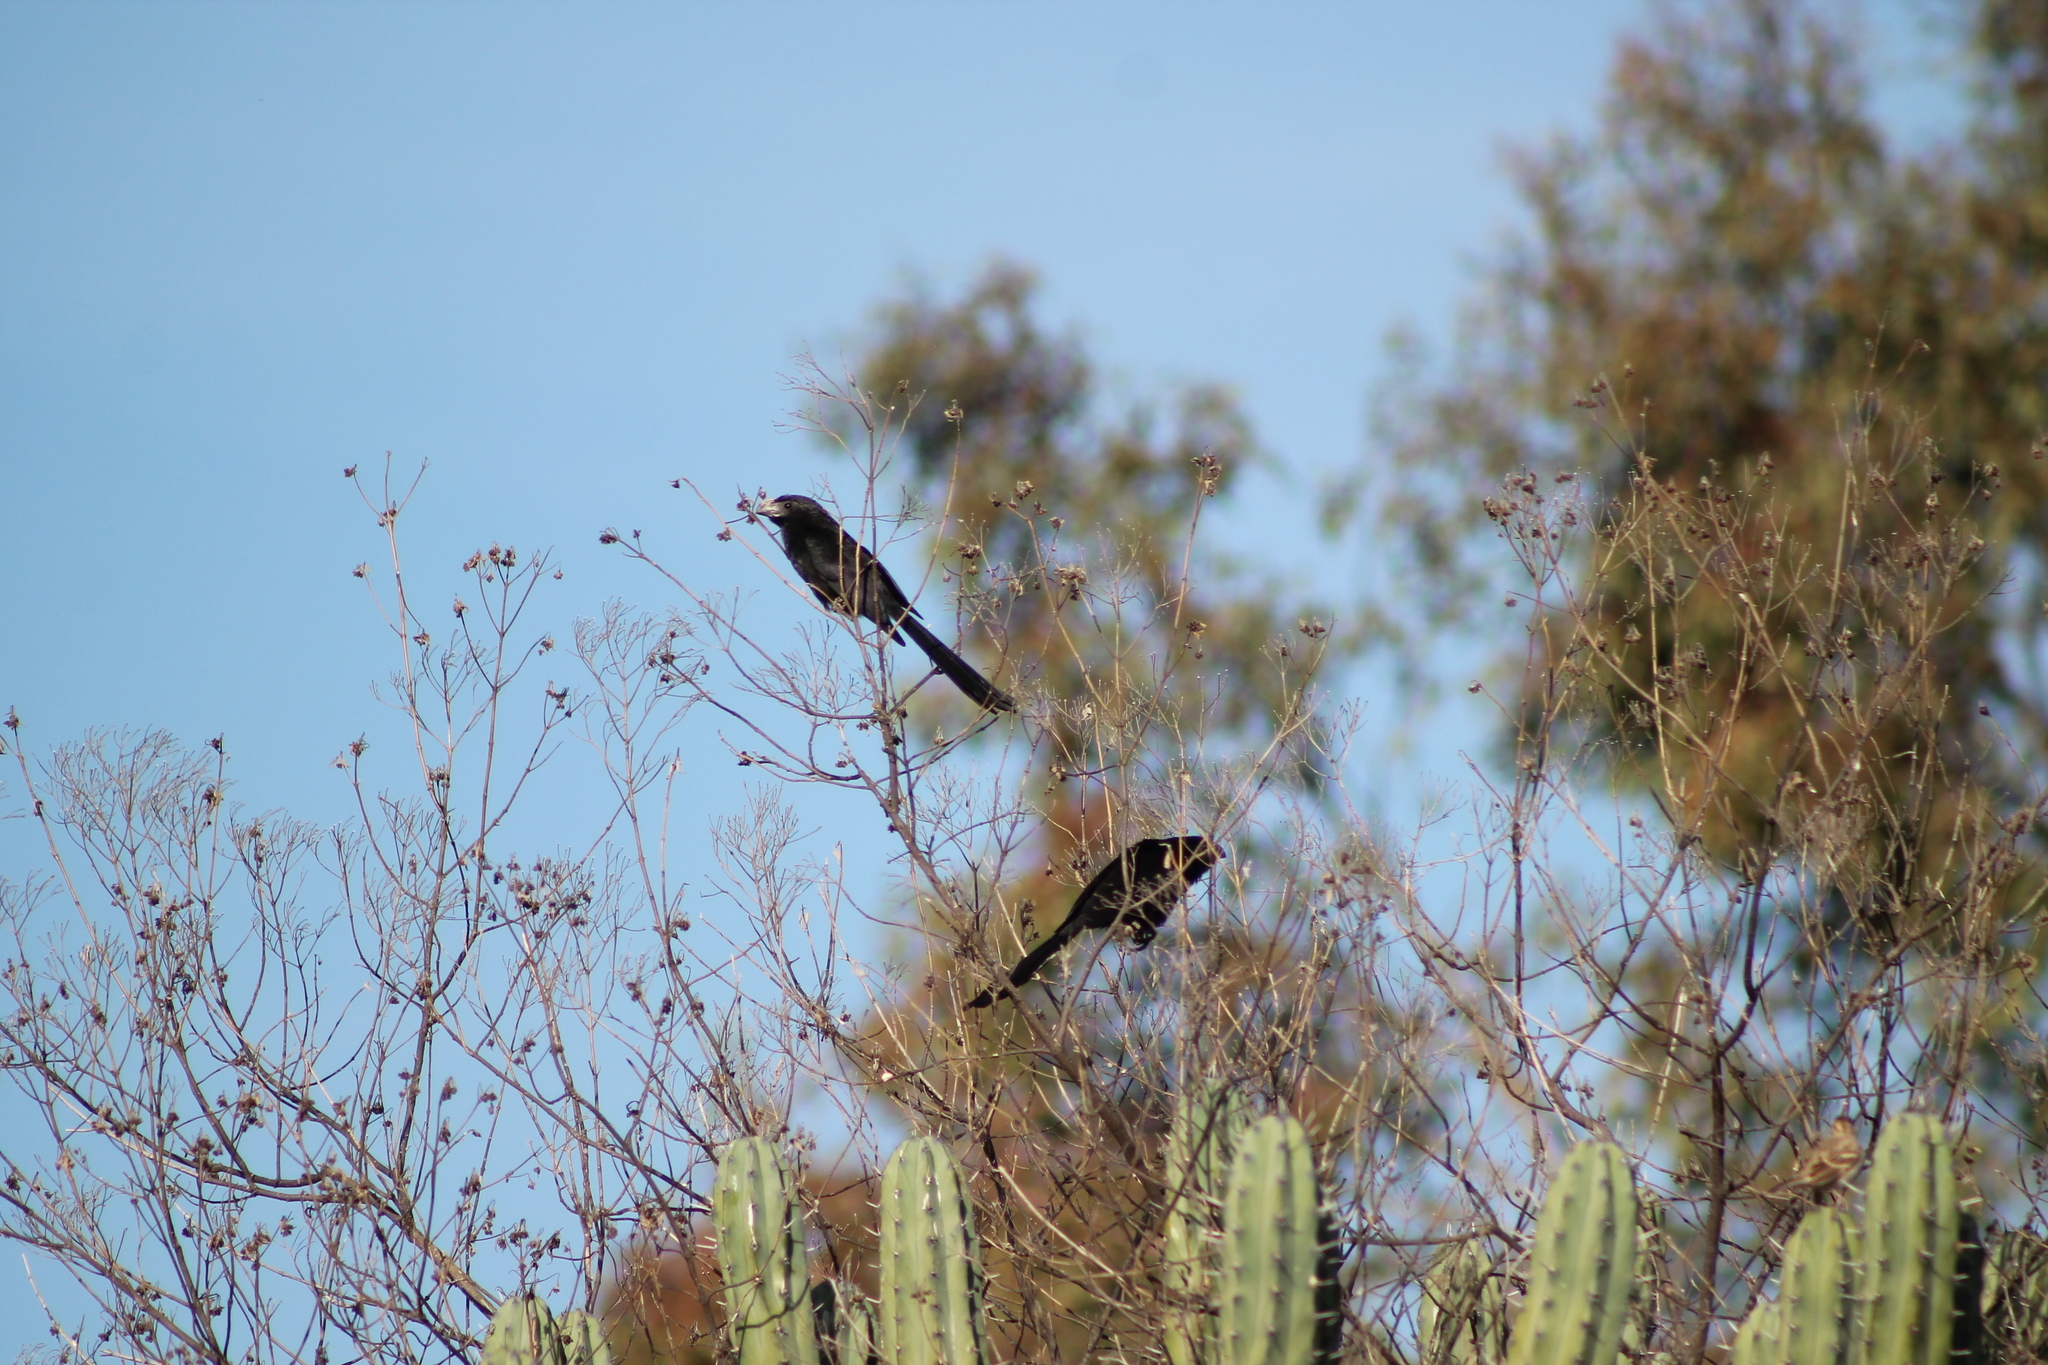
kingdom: Animalia
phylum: Chordata
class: Aves
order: Cuculiformes
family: Cuculidae
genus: Crotophaga
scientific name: Crotophaga sulcirostris
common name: Groove-billed ani
